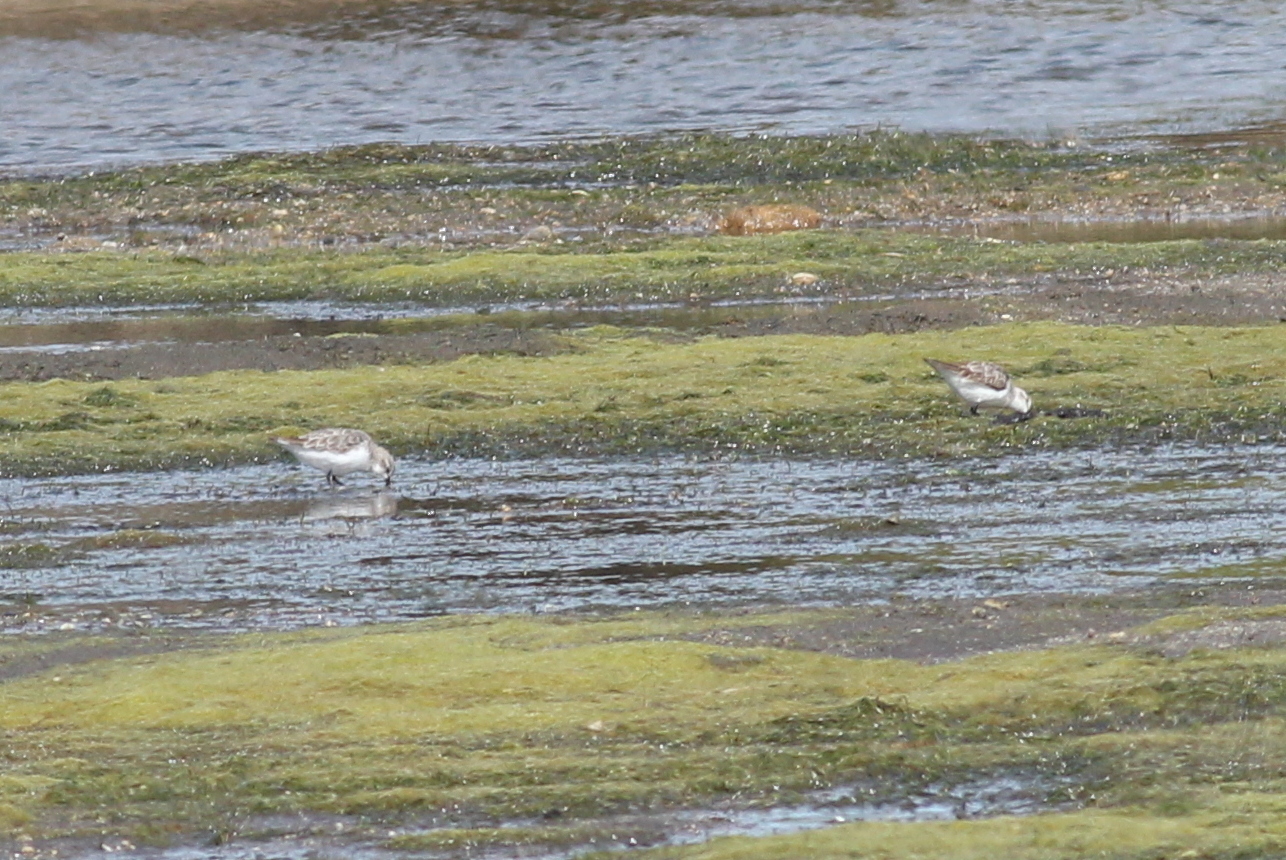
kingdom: Animalia
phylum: Chordata
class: Aves
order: Charadriiformes
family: Scolopacidae
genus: Calidris
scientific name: Calidris ruficollis
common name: Red-necked stint
